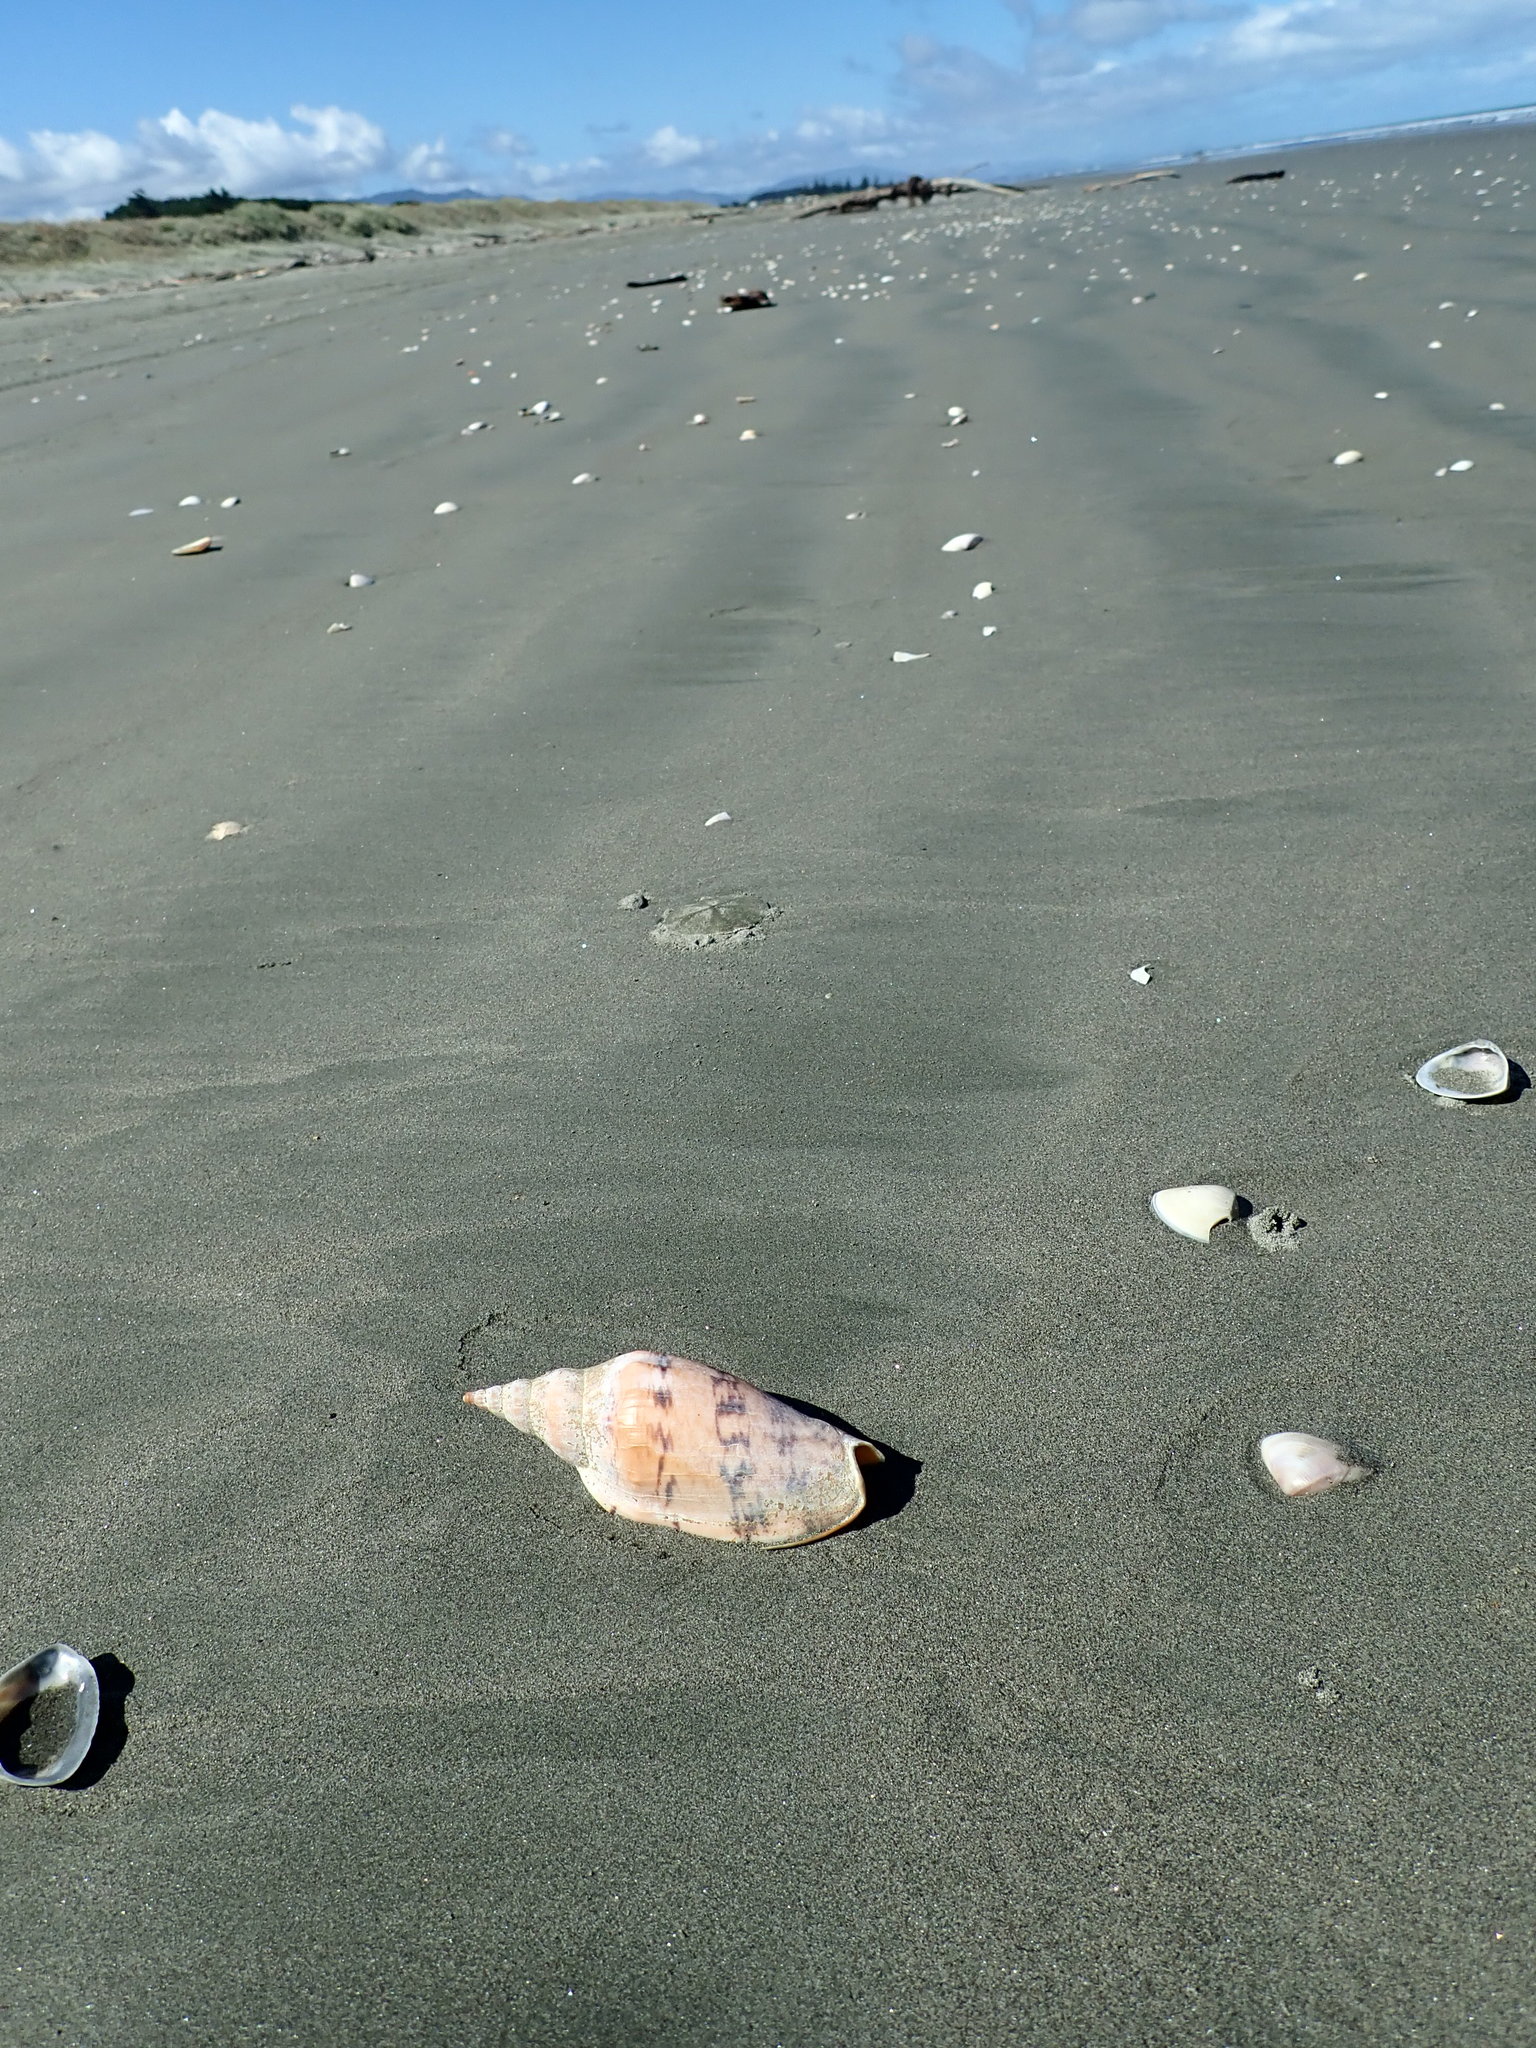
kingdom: Animalia
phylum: Echinodermata
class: Echinoidea
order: Clypeasteroida
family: Clypeasteridae
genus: Fellaster
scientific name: Fellaster zelandiae
